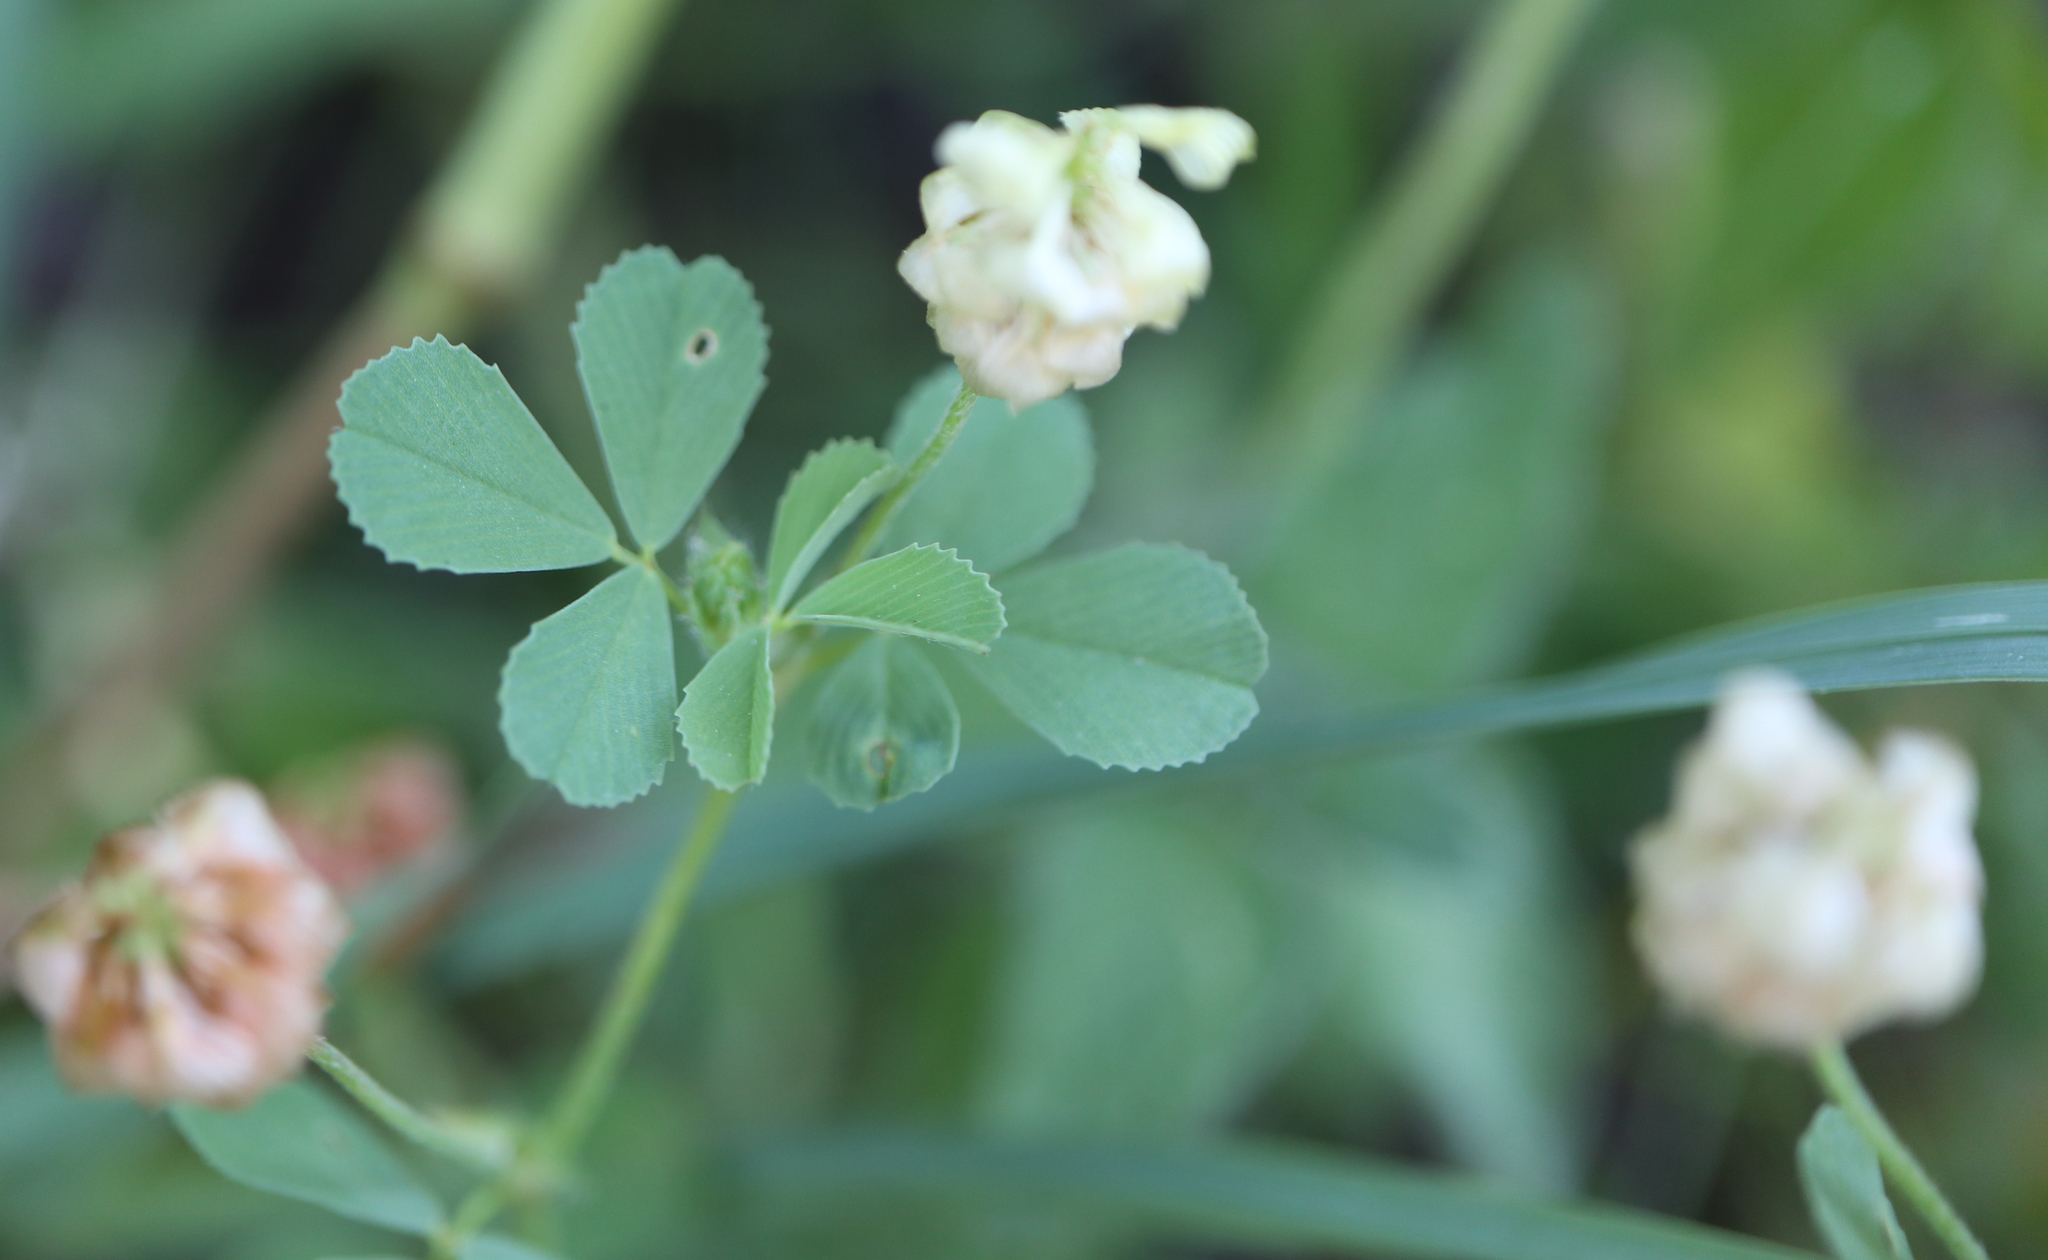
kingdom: Plantae
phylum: Tracheophyta
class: Magnoliopsida
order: Fabales
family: Fabaceae
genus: Trifolium
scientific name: Trifolium campestre
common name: Field clover
